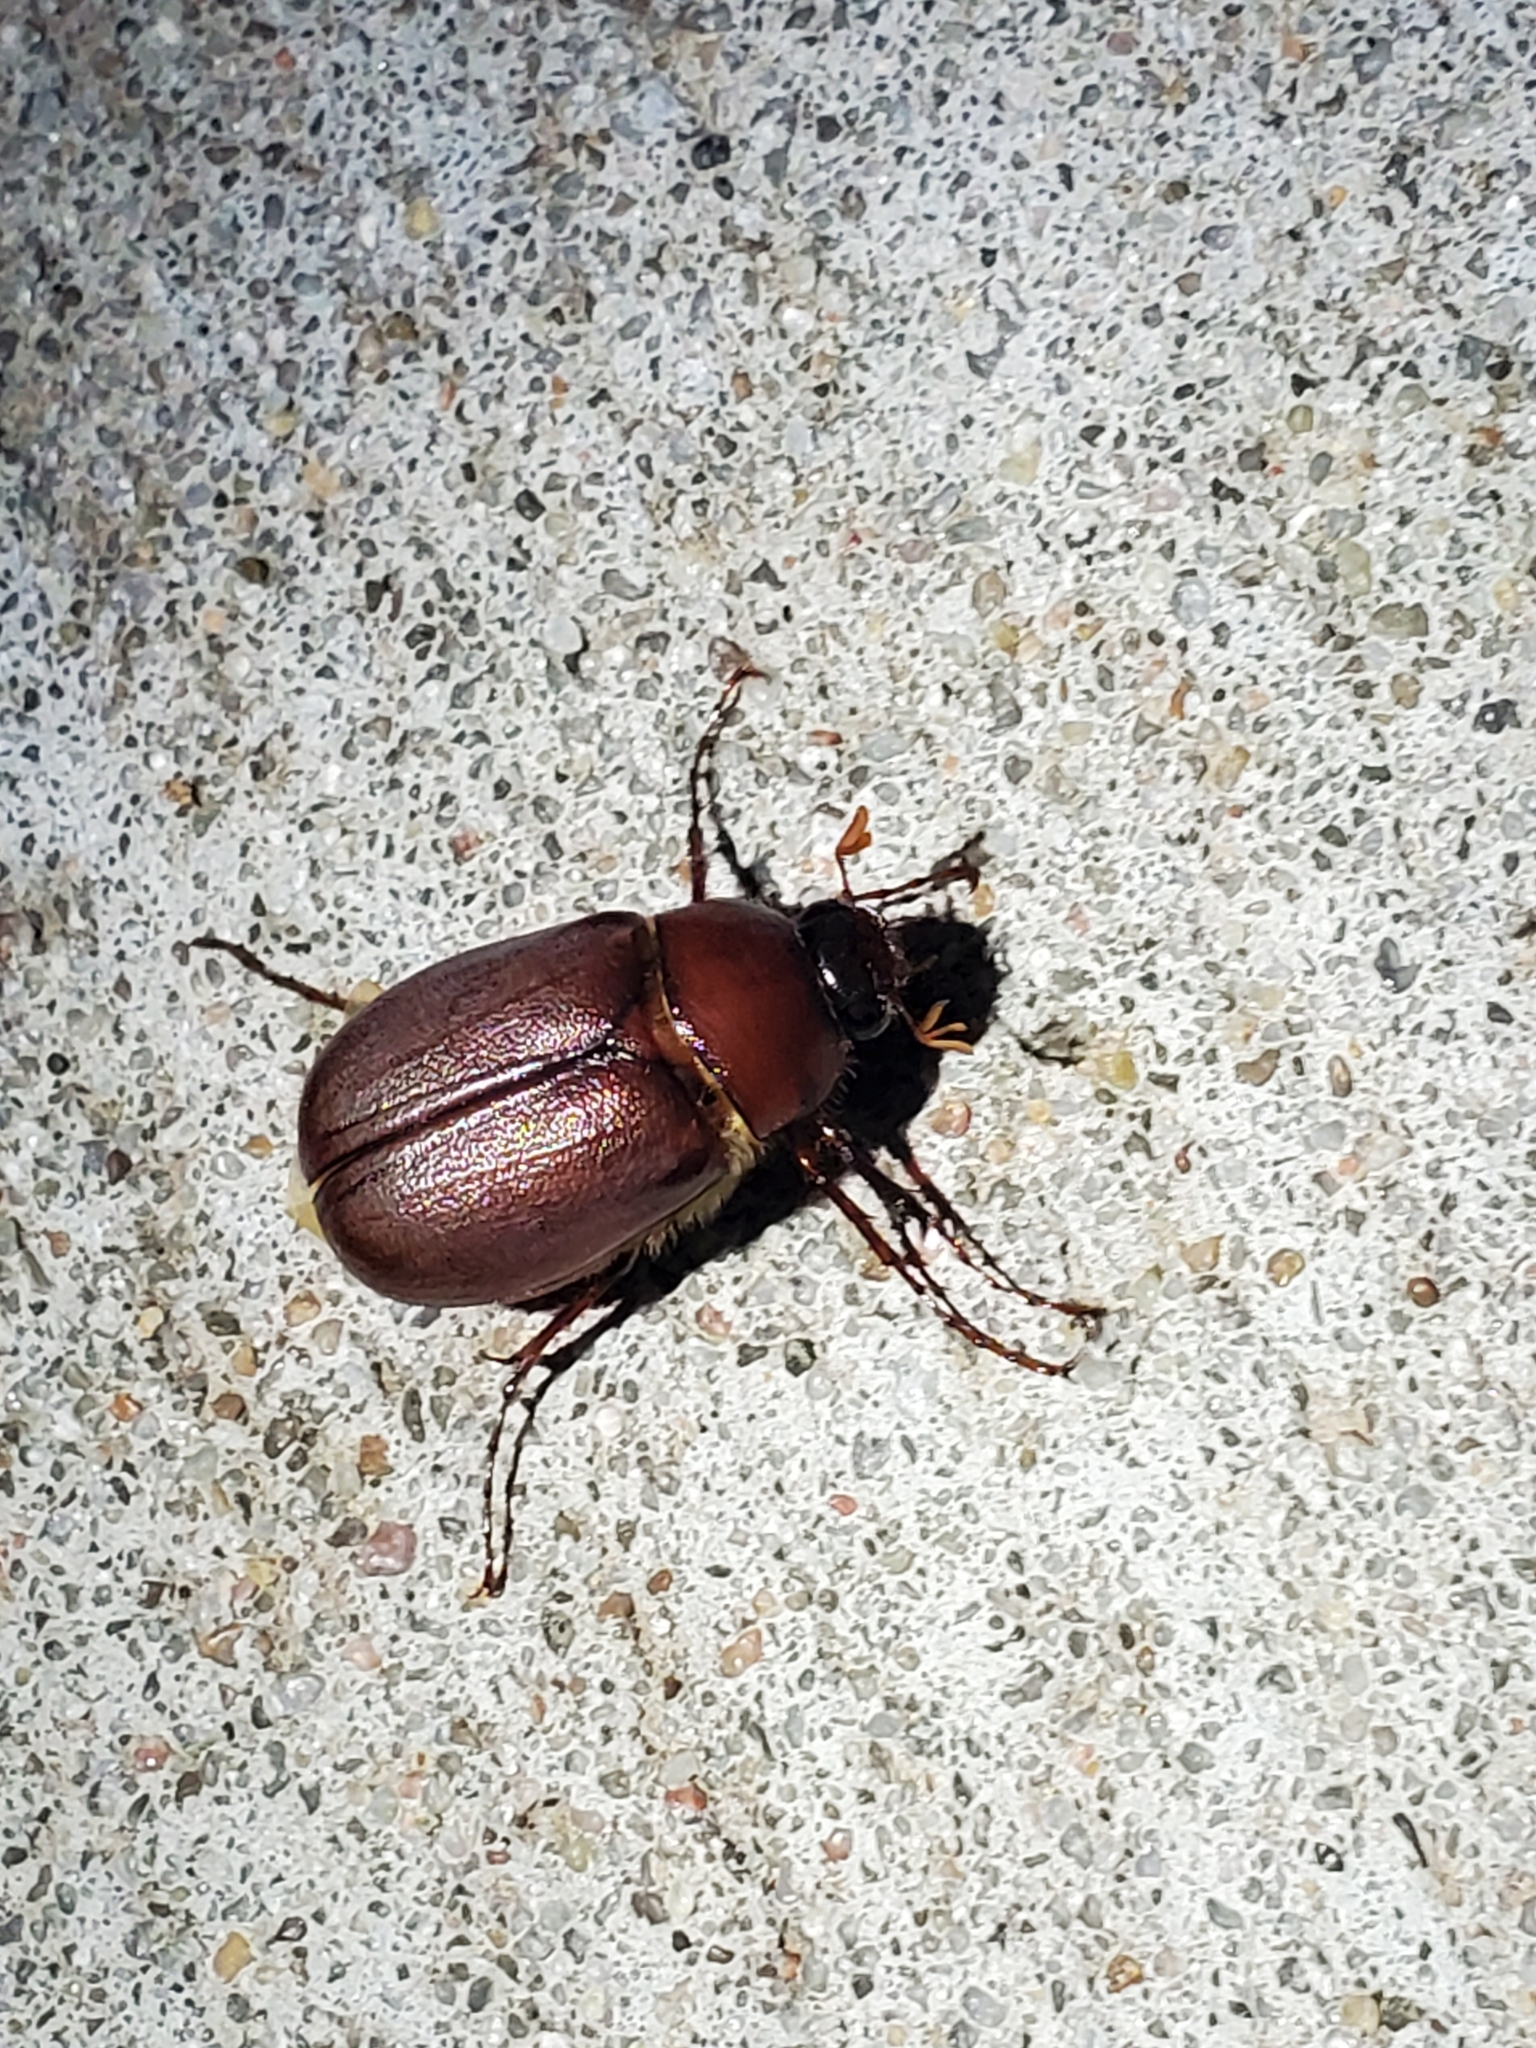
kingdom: Animalia
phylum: Arthropoda
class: Insecta
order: Coleoptera
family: Scarabaeidae
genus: Phyllophaga
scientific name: Phyllophaga crassissima
